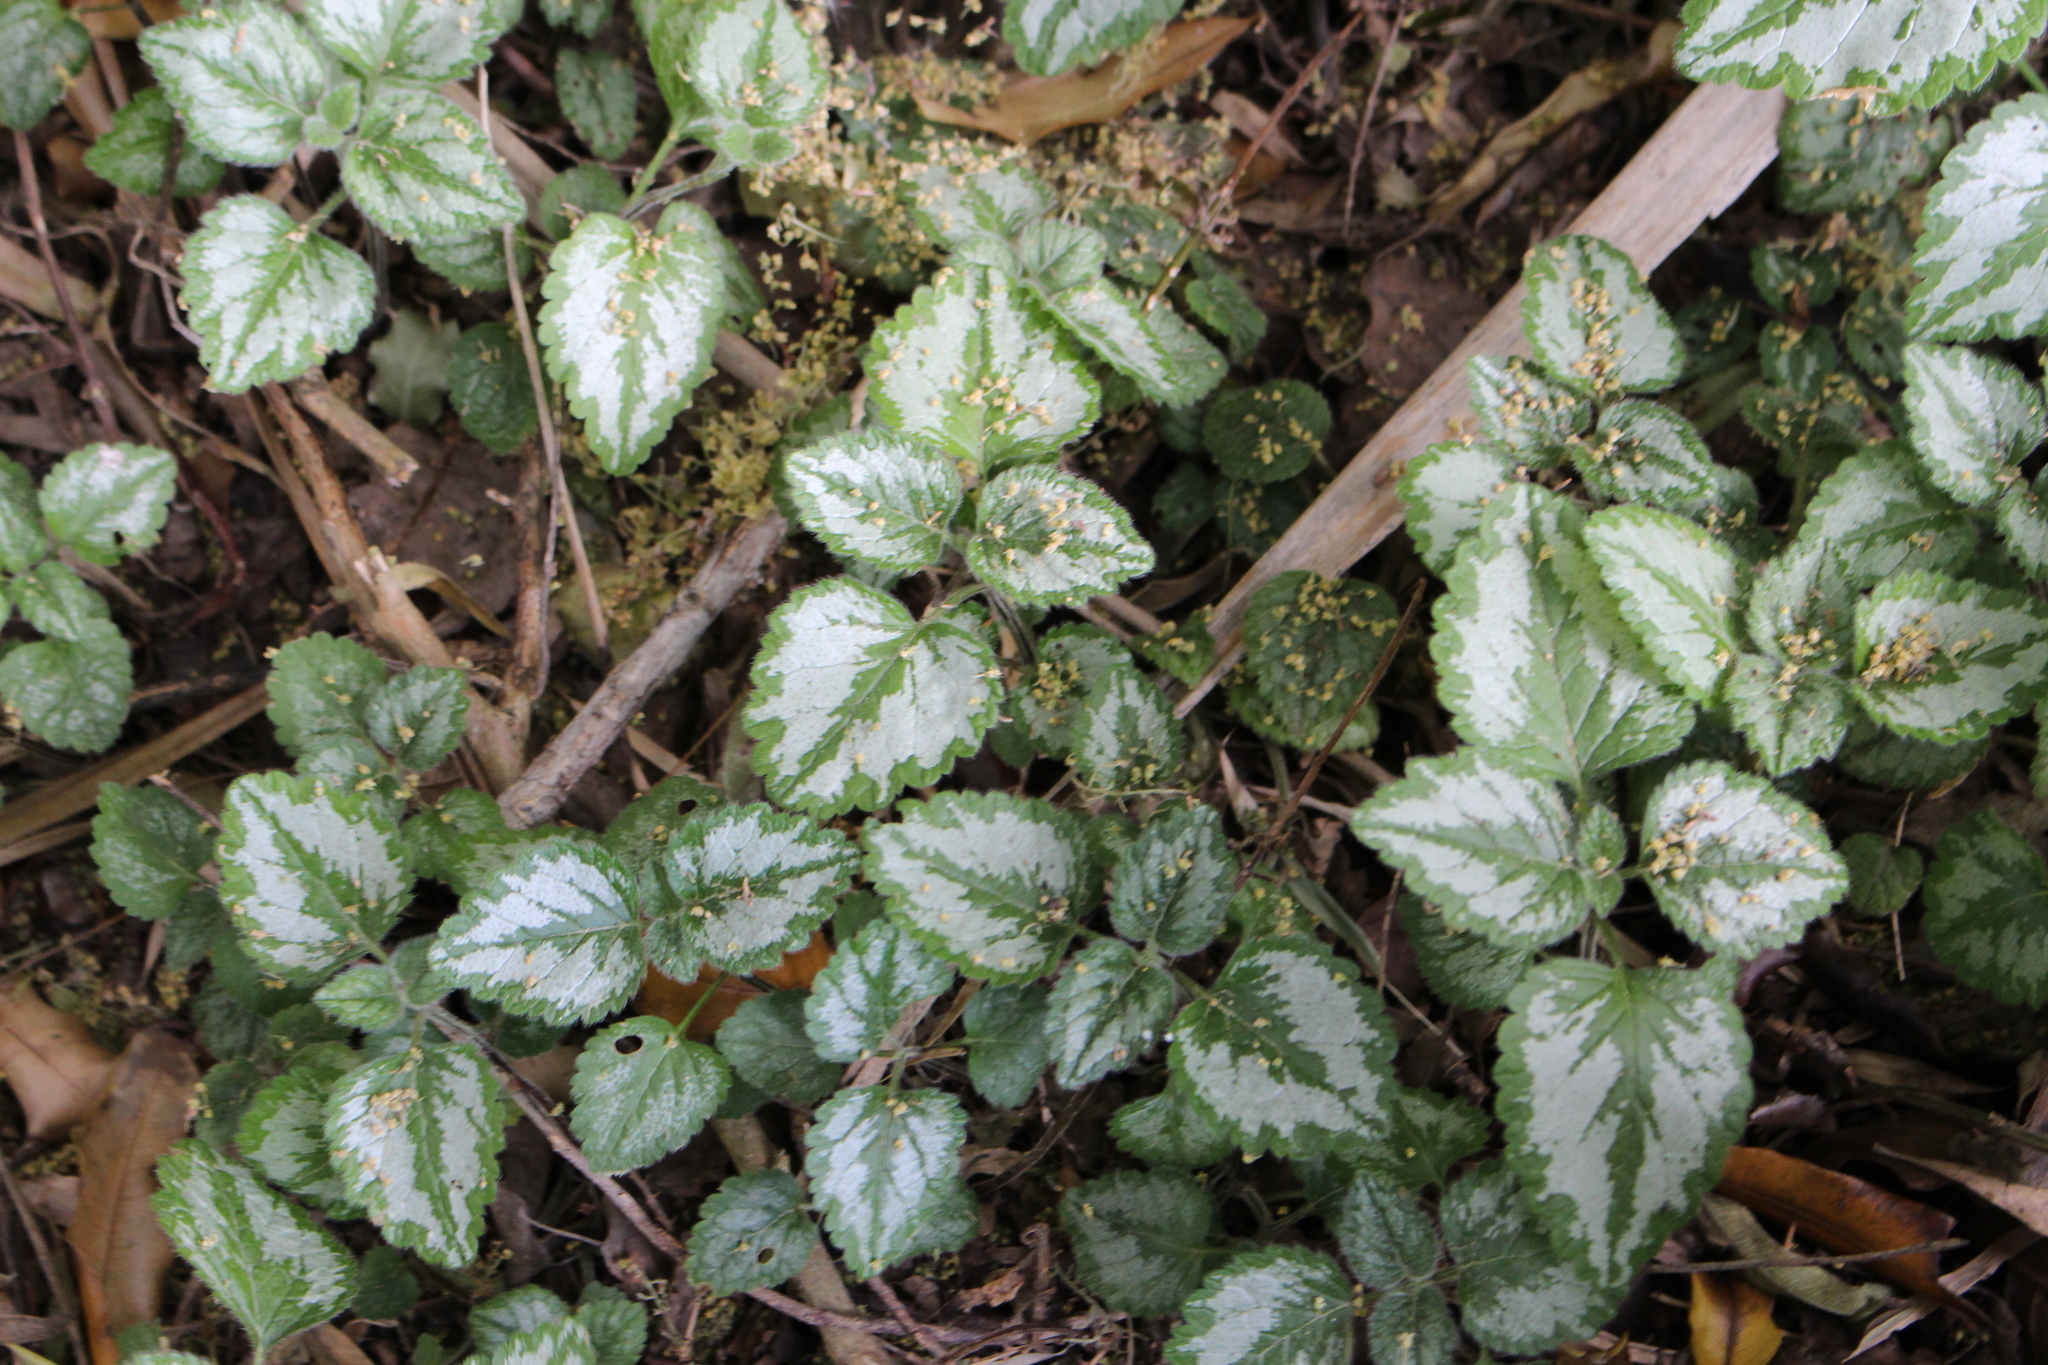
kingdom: Plantae
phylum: Tracheophyta
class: Magnoliopsida
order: Lamiales
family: Lamiaceae
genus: Lamium
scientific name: Lamium galeobdolon
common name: Yellow archangel
